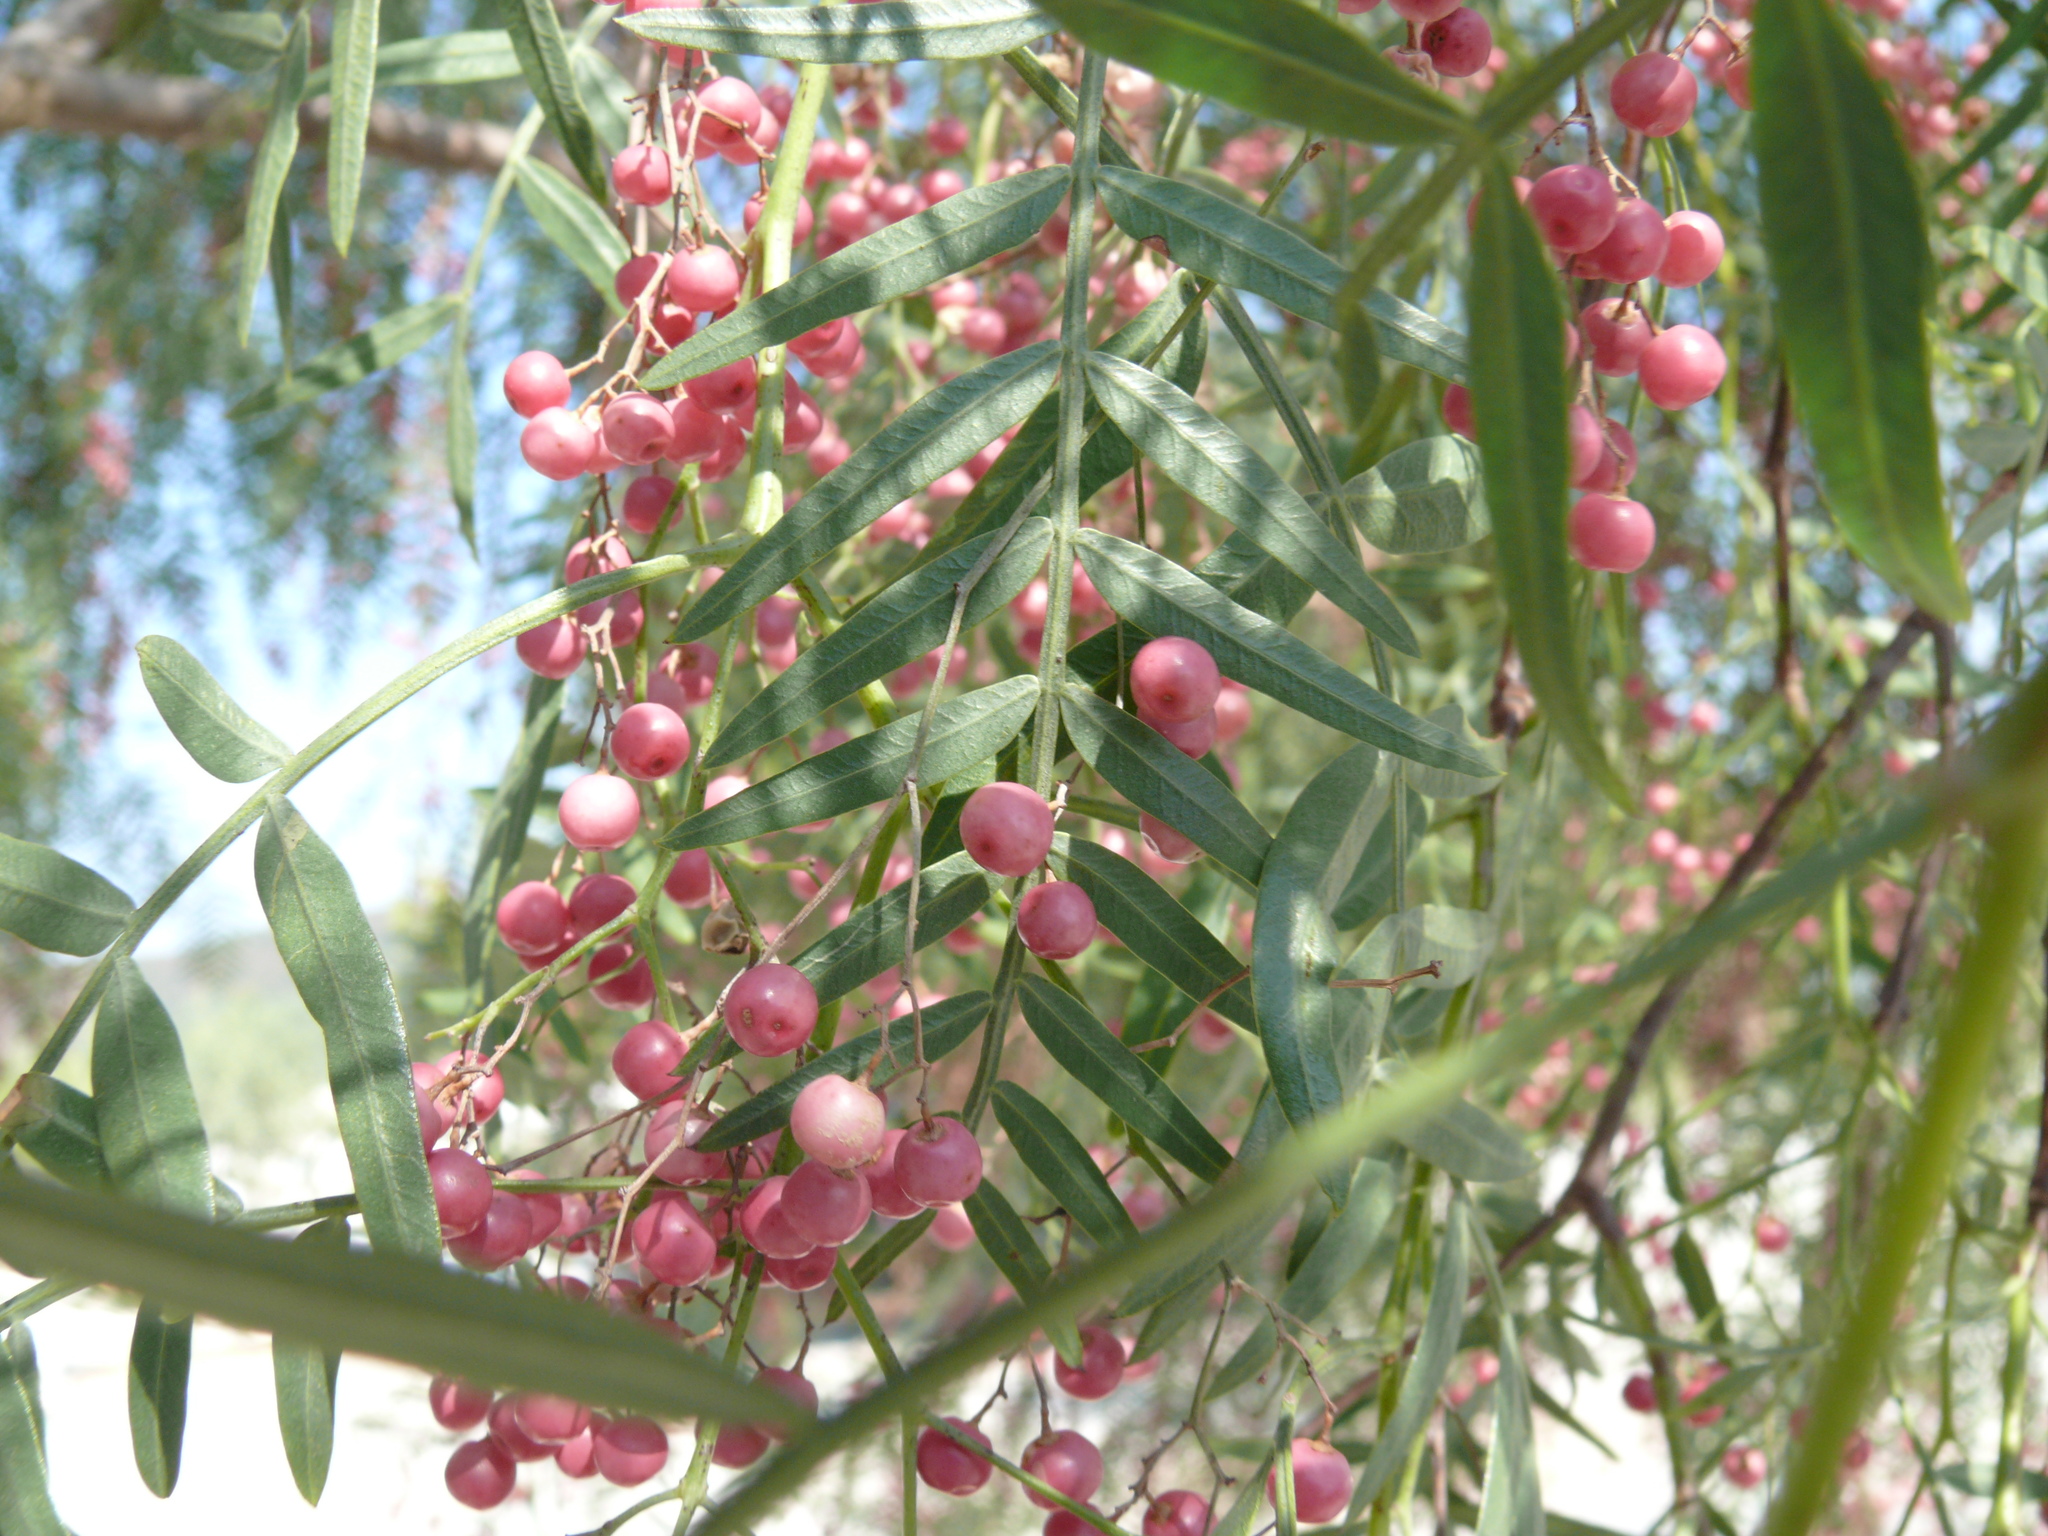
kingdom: Plantae
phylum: Tracheophyta
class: Magnoliopsida
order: Sapindales
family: Anacardiaceae
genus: Schinus
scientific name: Schinus molle
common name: Peruvian peppertree
